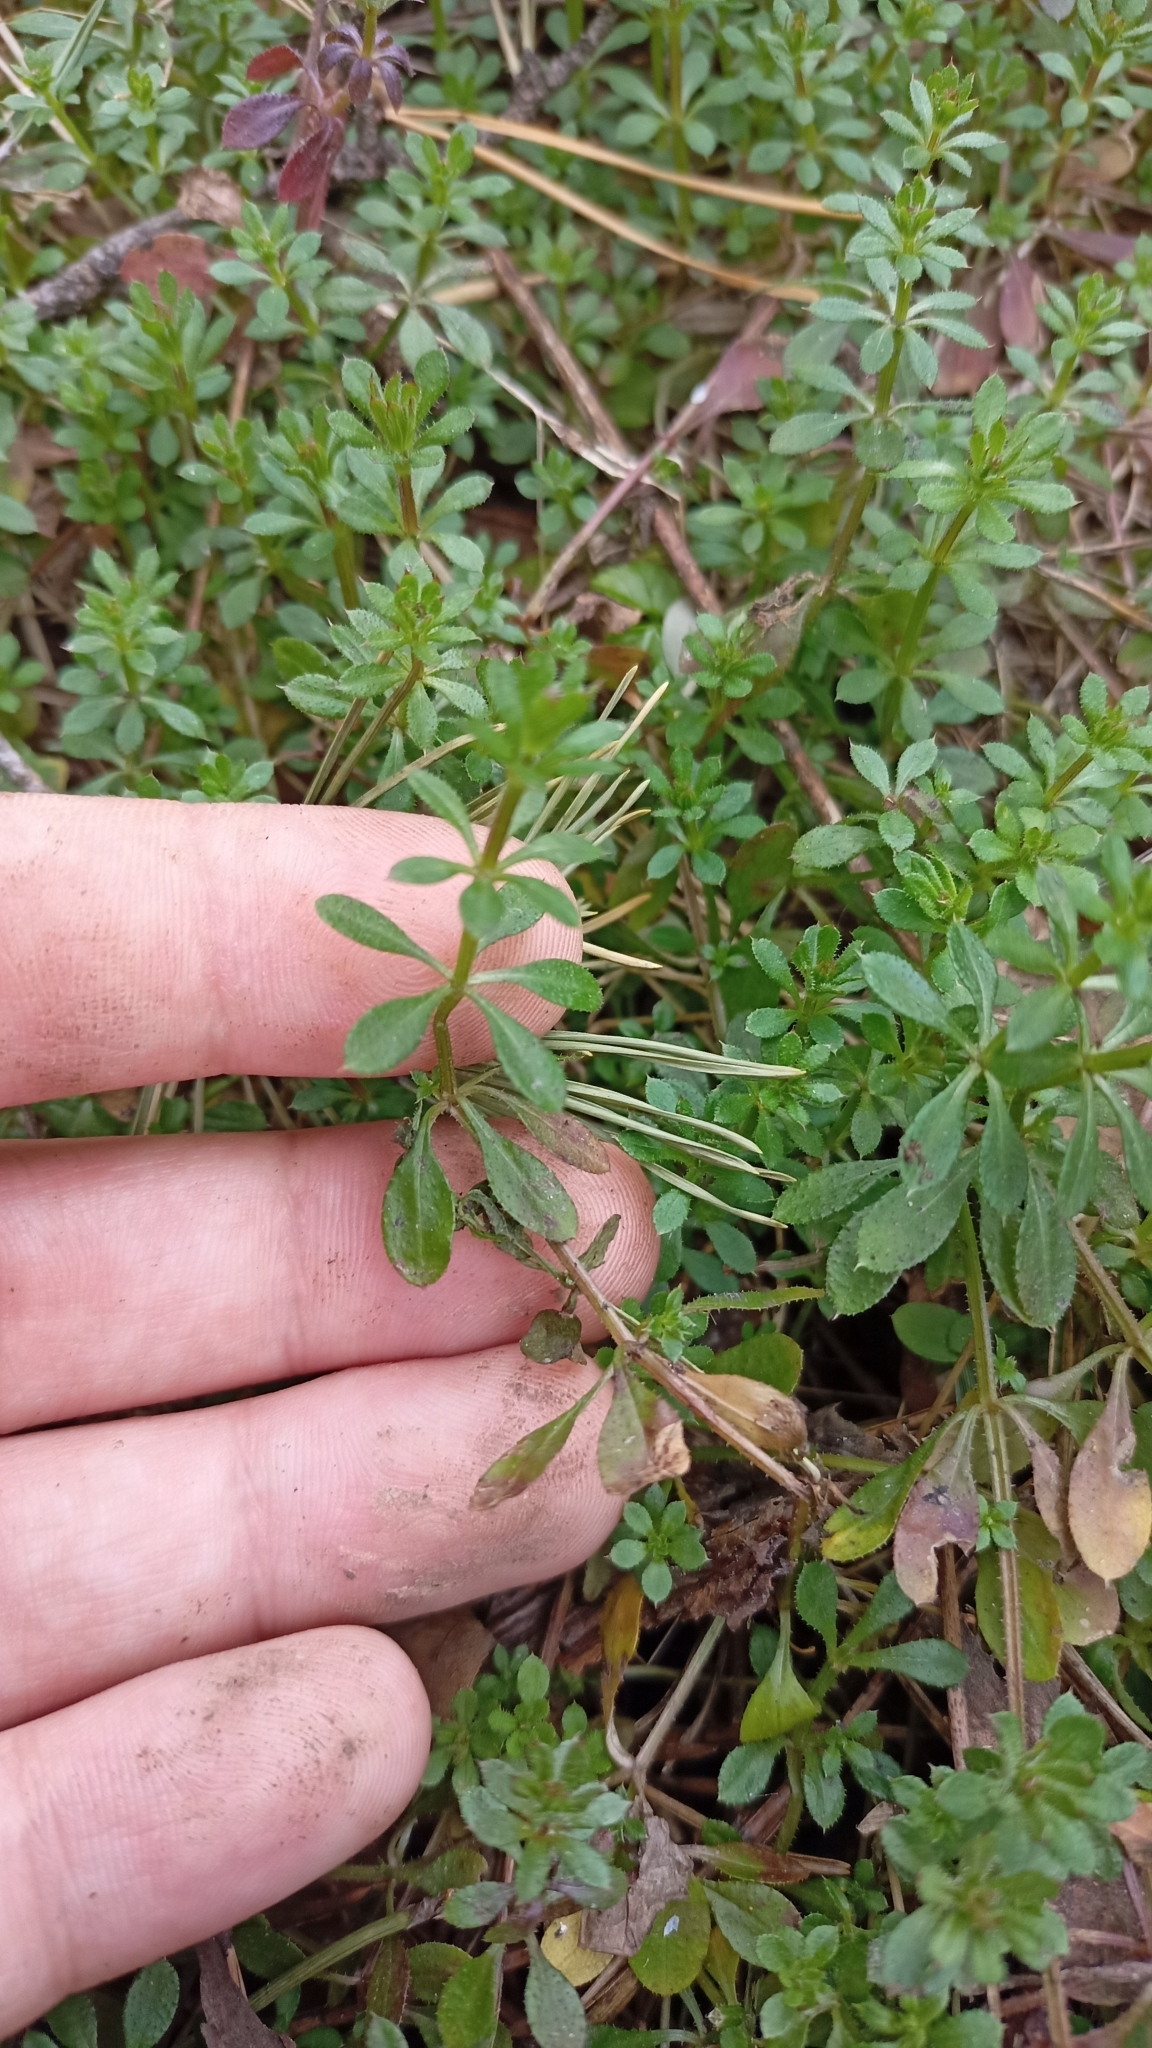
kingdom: Plantae
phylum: Tracheophyta
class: Magnoliopsida
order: Gentianales
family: Rubiaceae
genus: Galium
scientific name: Galium mollugo
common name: Hedge bedstraw
